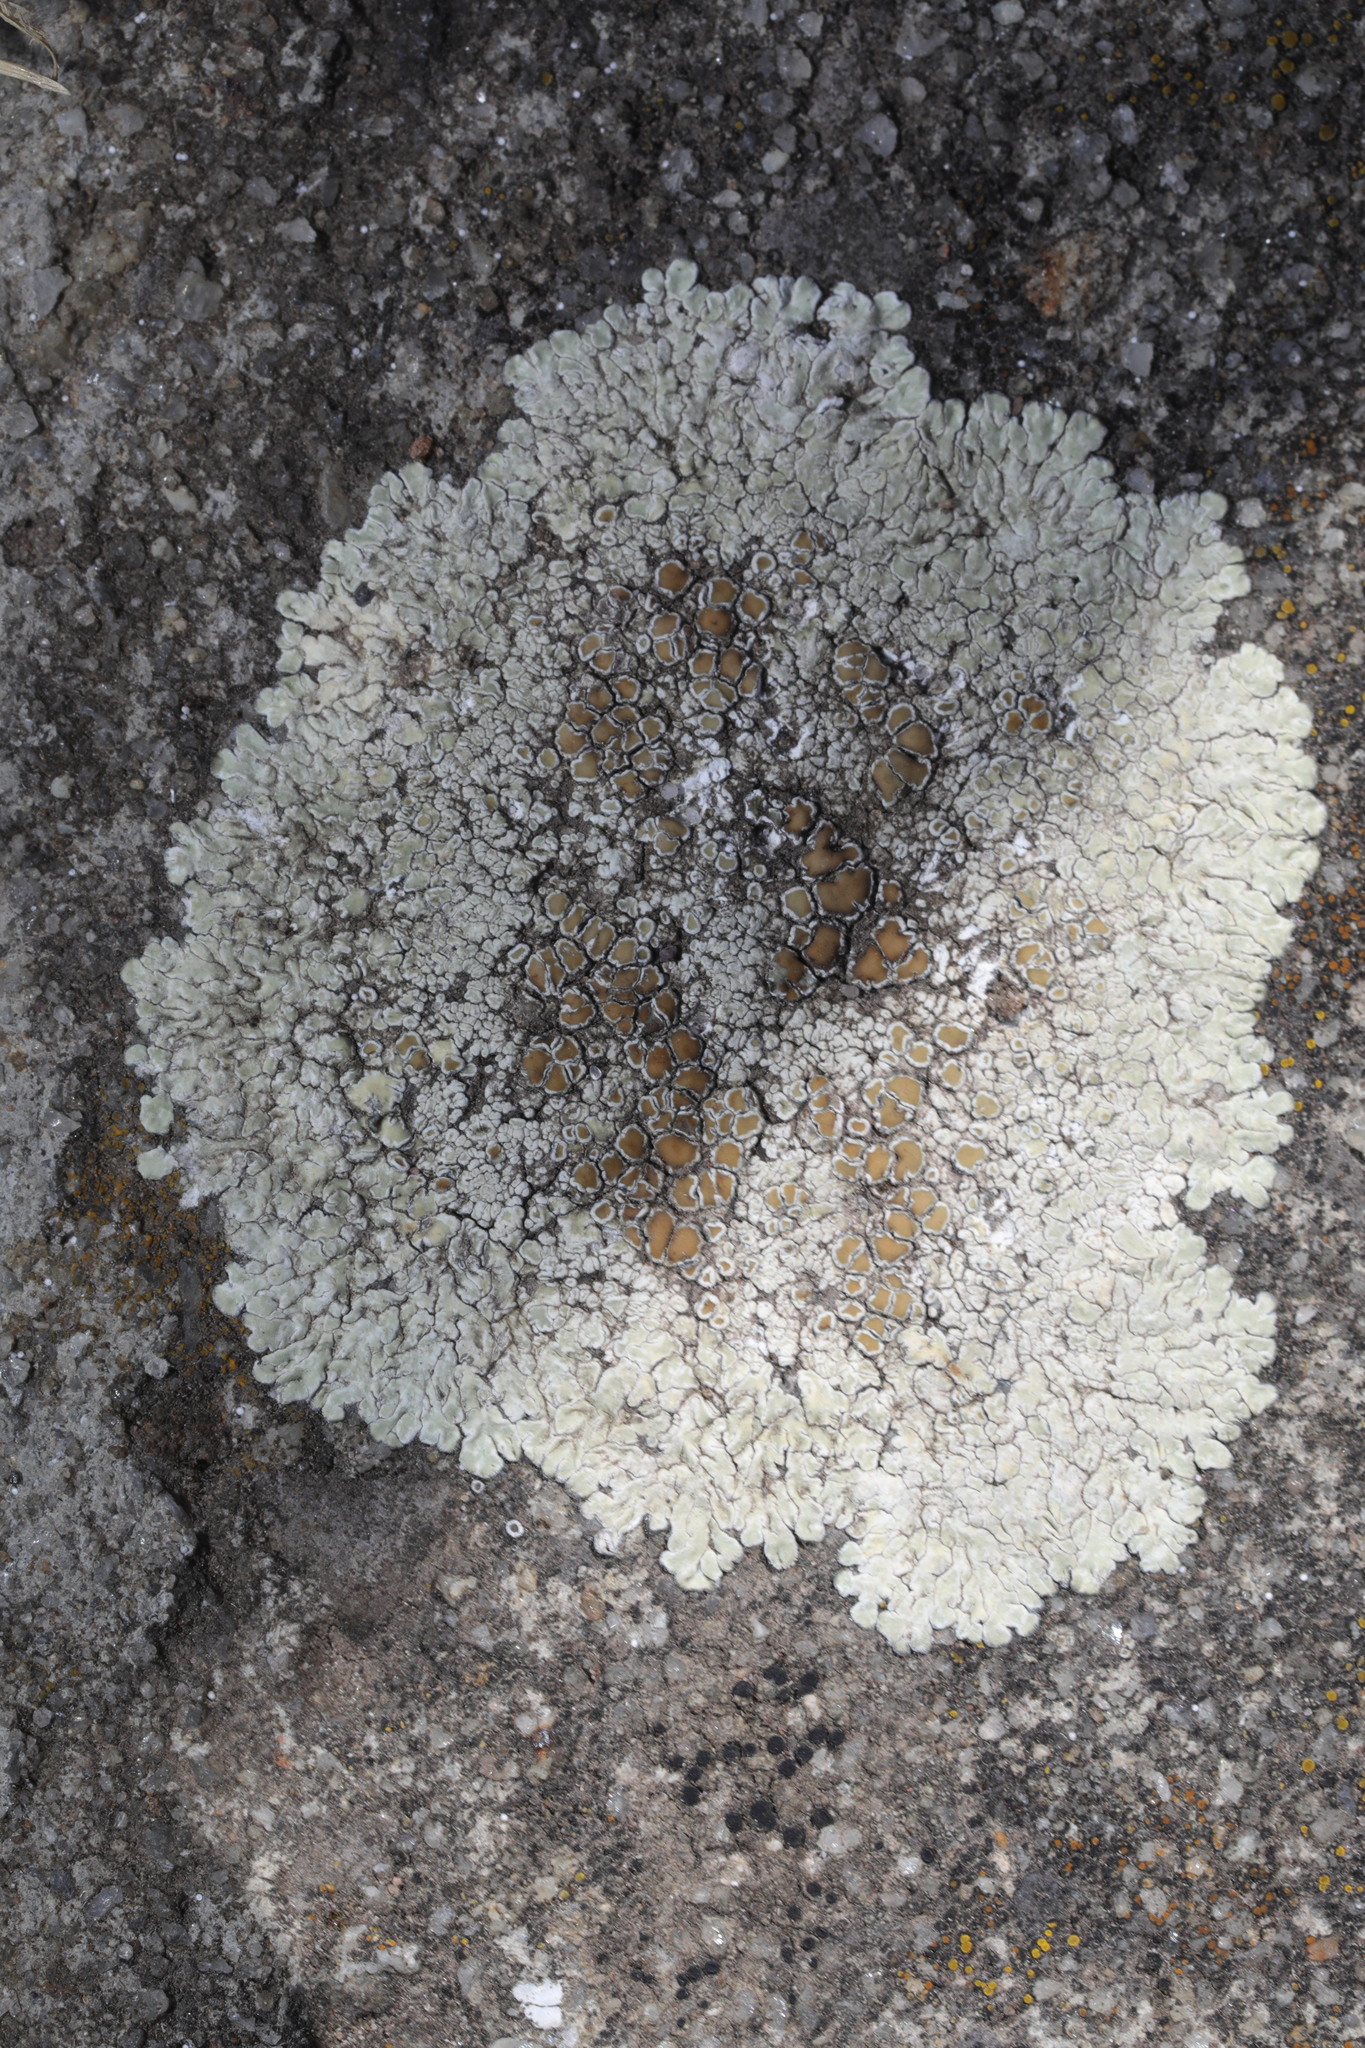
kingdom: Fungi
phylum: Ascomycota
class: Lecanoromycetes
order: Lecanorales
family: Lecanoraceae
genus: Protoparmeliopsis
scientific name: Protoparmeliopsis muralis
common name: Stonewall rim lichen
